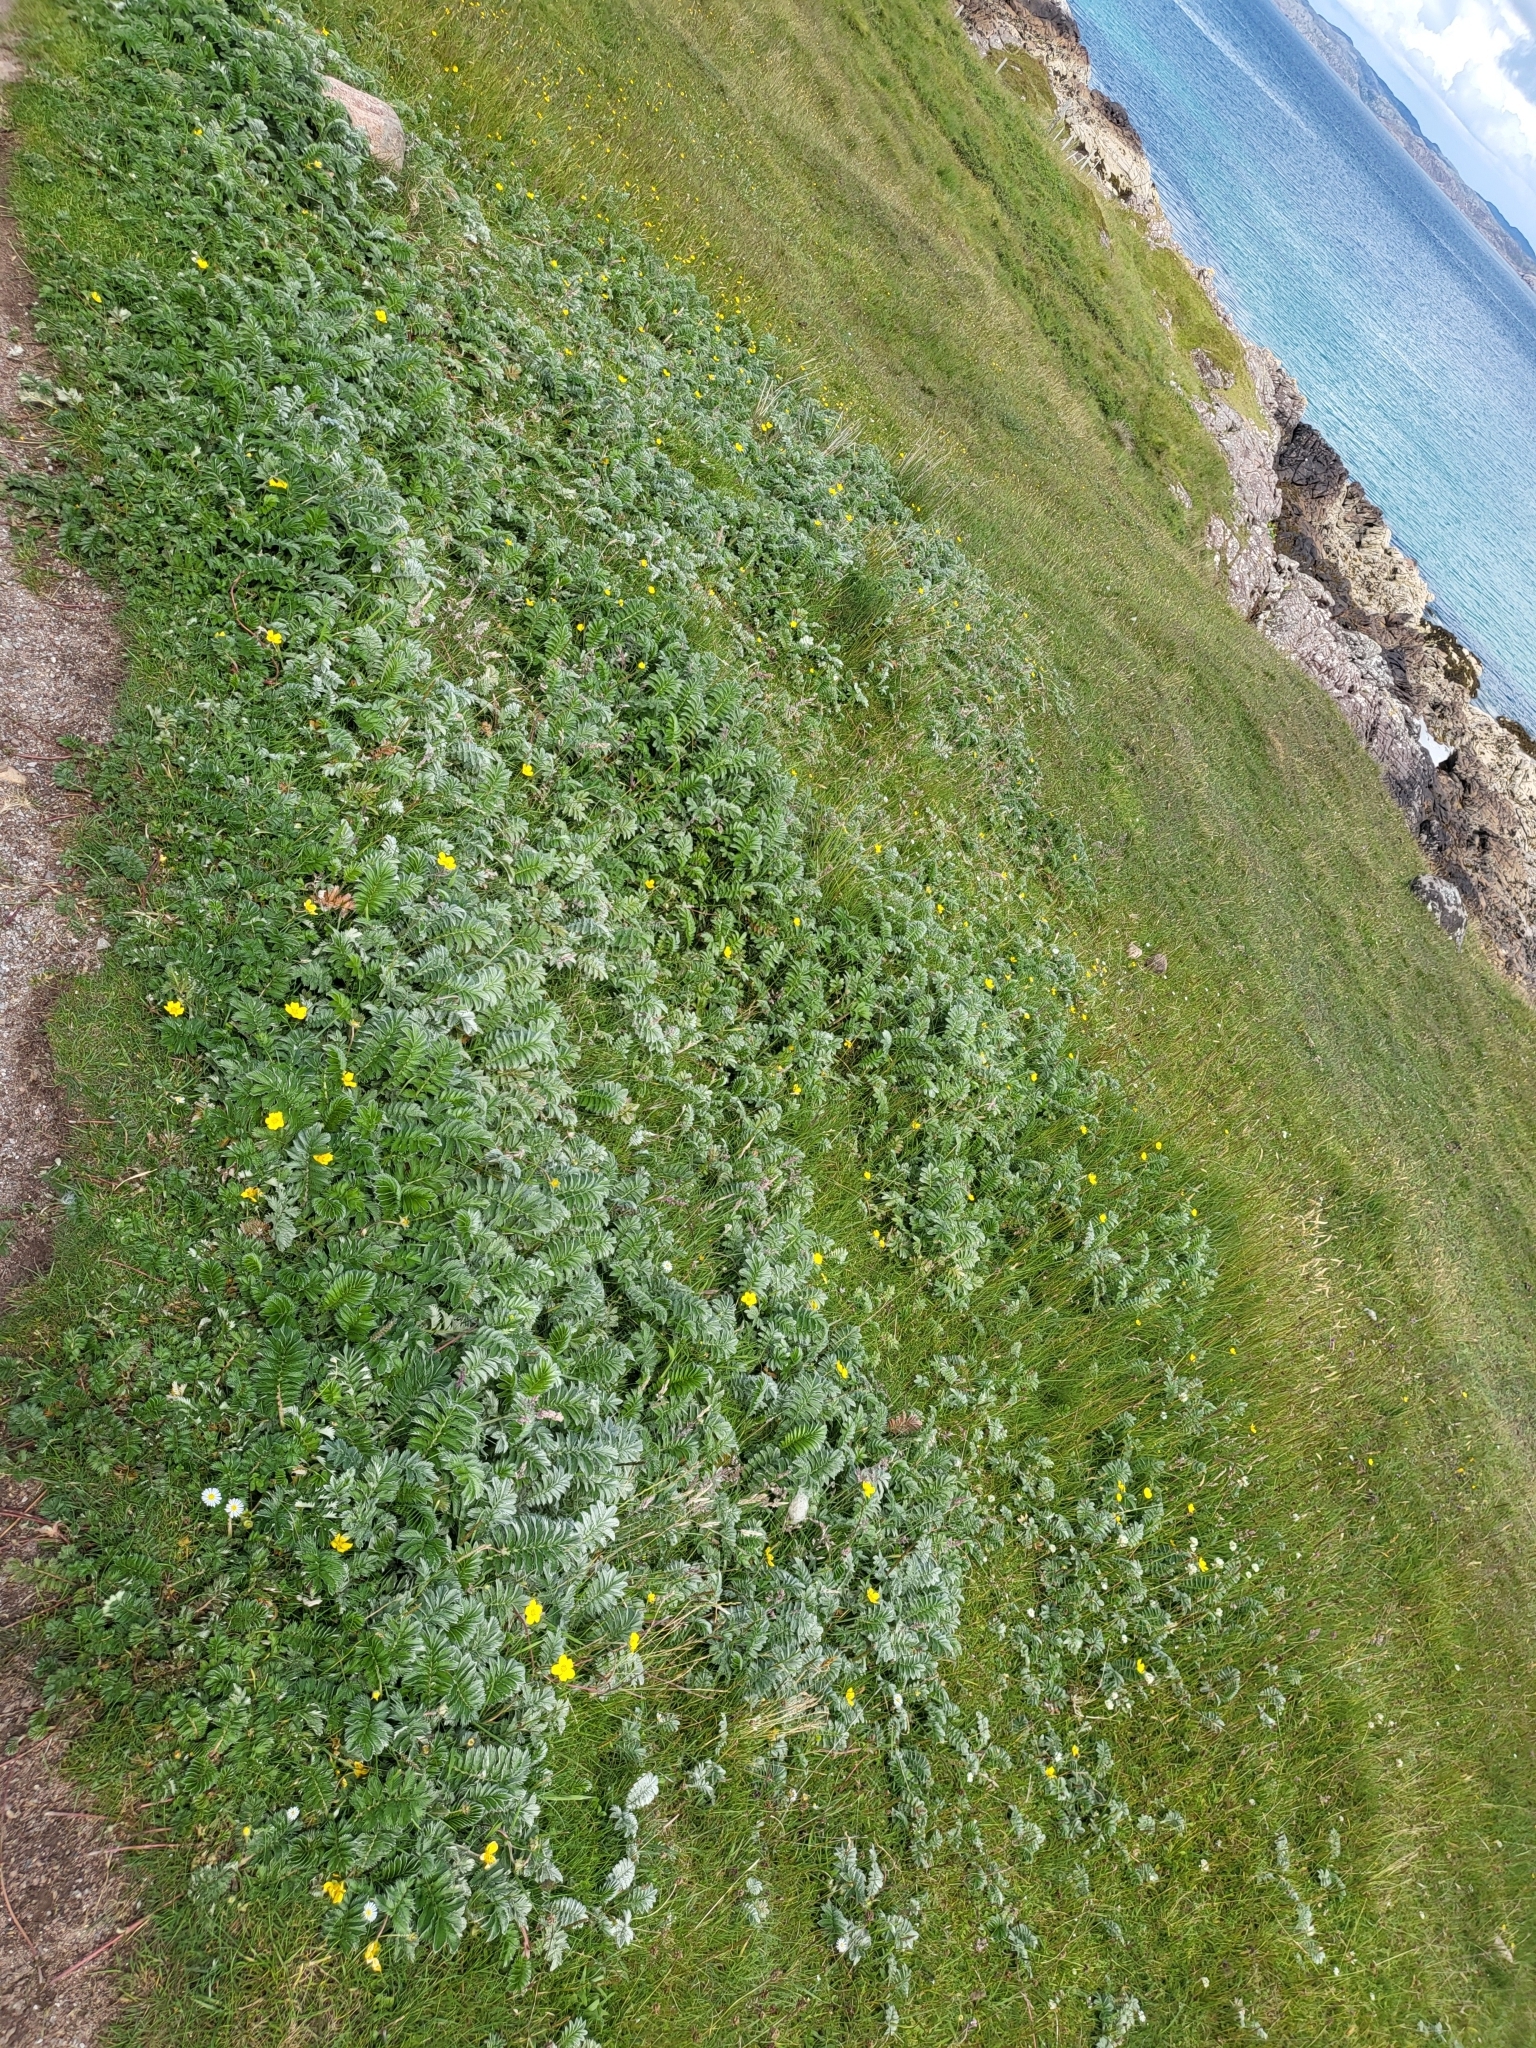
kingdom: Plantae
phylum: Tracheophyta
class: Magnoliopsida
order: Rosales
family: Rosaceae
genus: Argentina
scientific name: Argentina anserina
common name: Common silverweed
